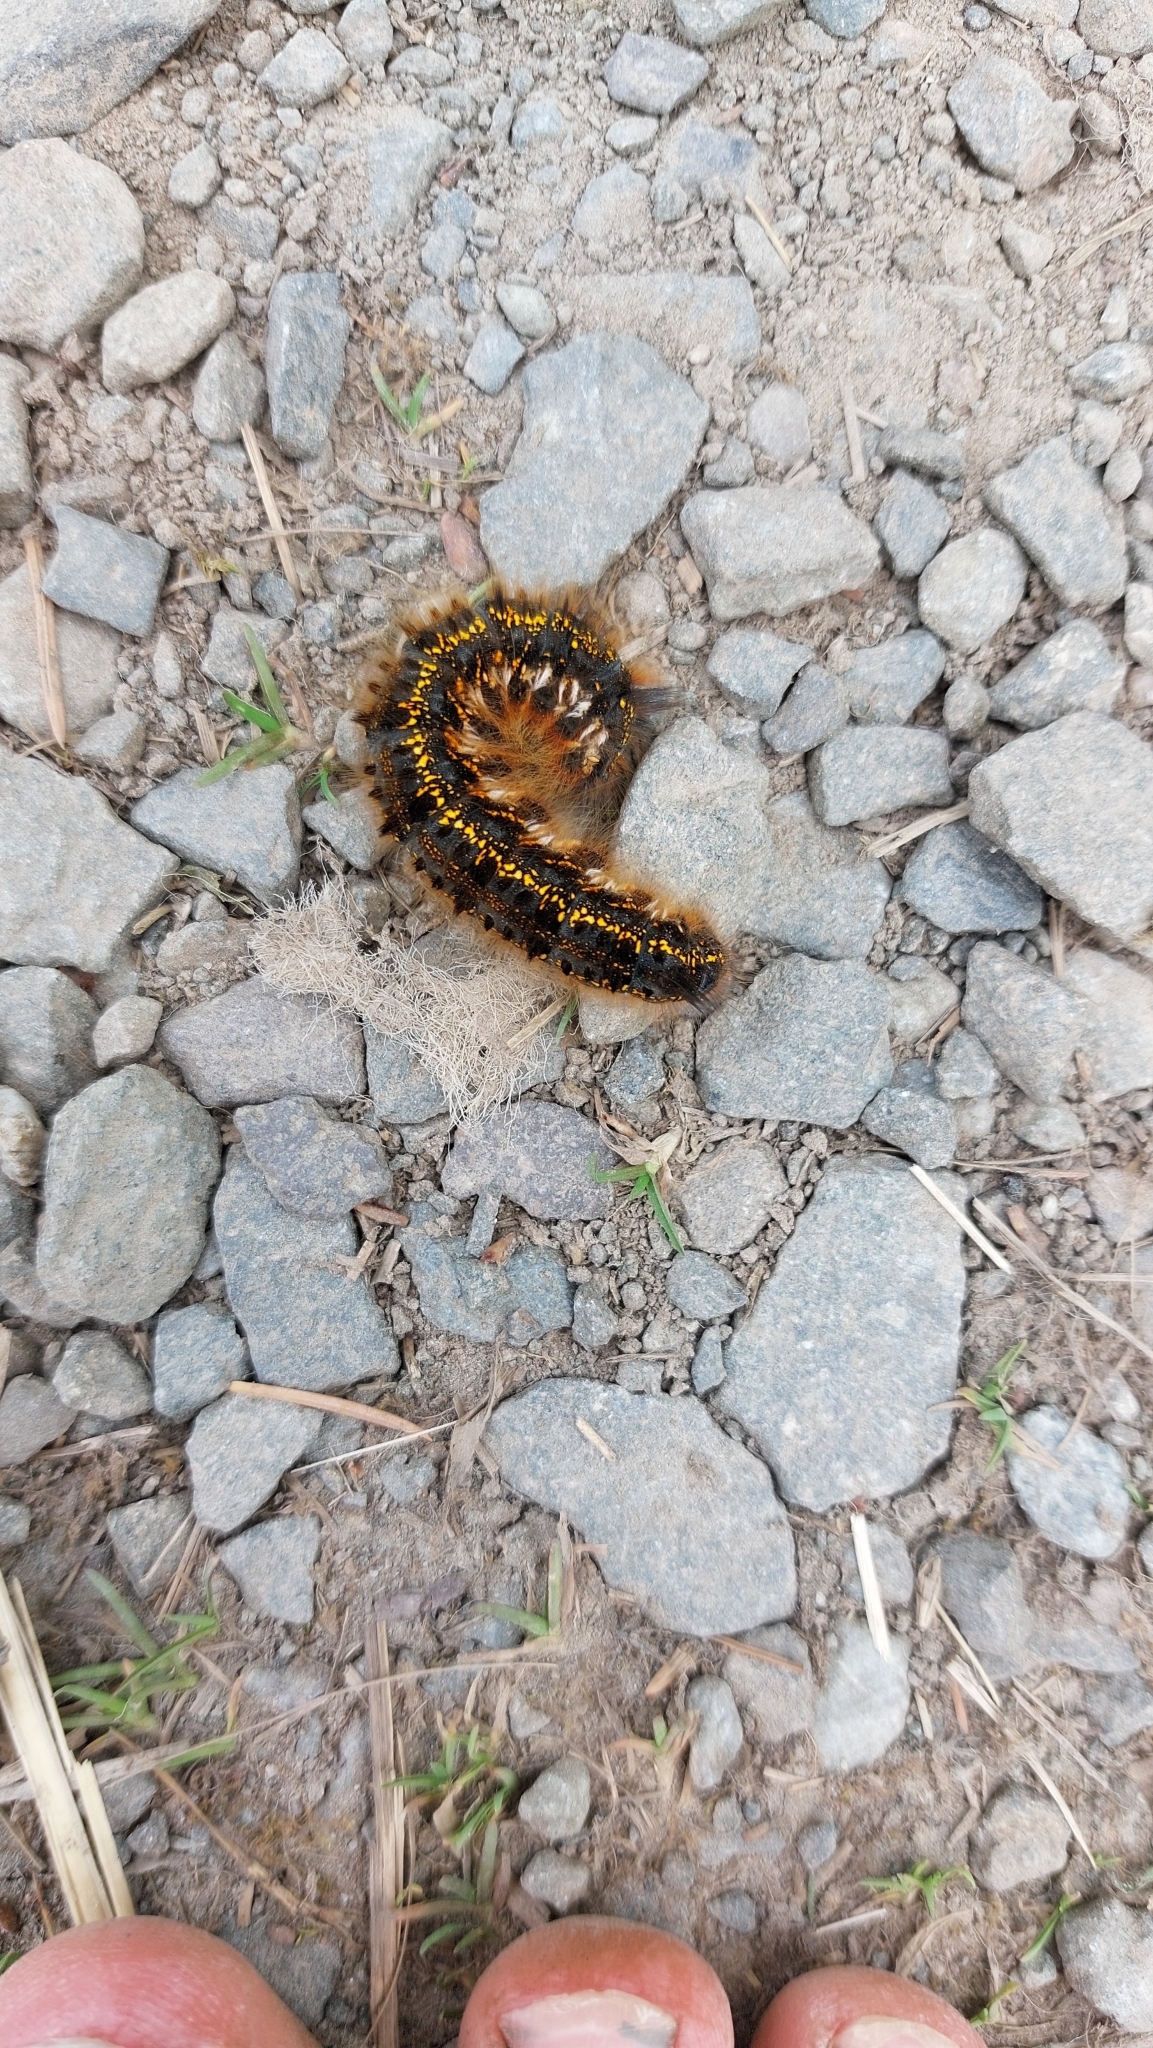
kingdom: Animalia
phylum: Arthropoda
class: Insecta
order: Lepidoptera
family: Lasiocampidae
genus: Euthrix
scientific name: Euthrix potatoria
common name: Drinker
